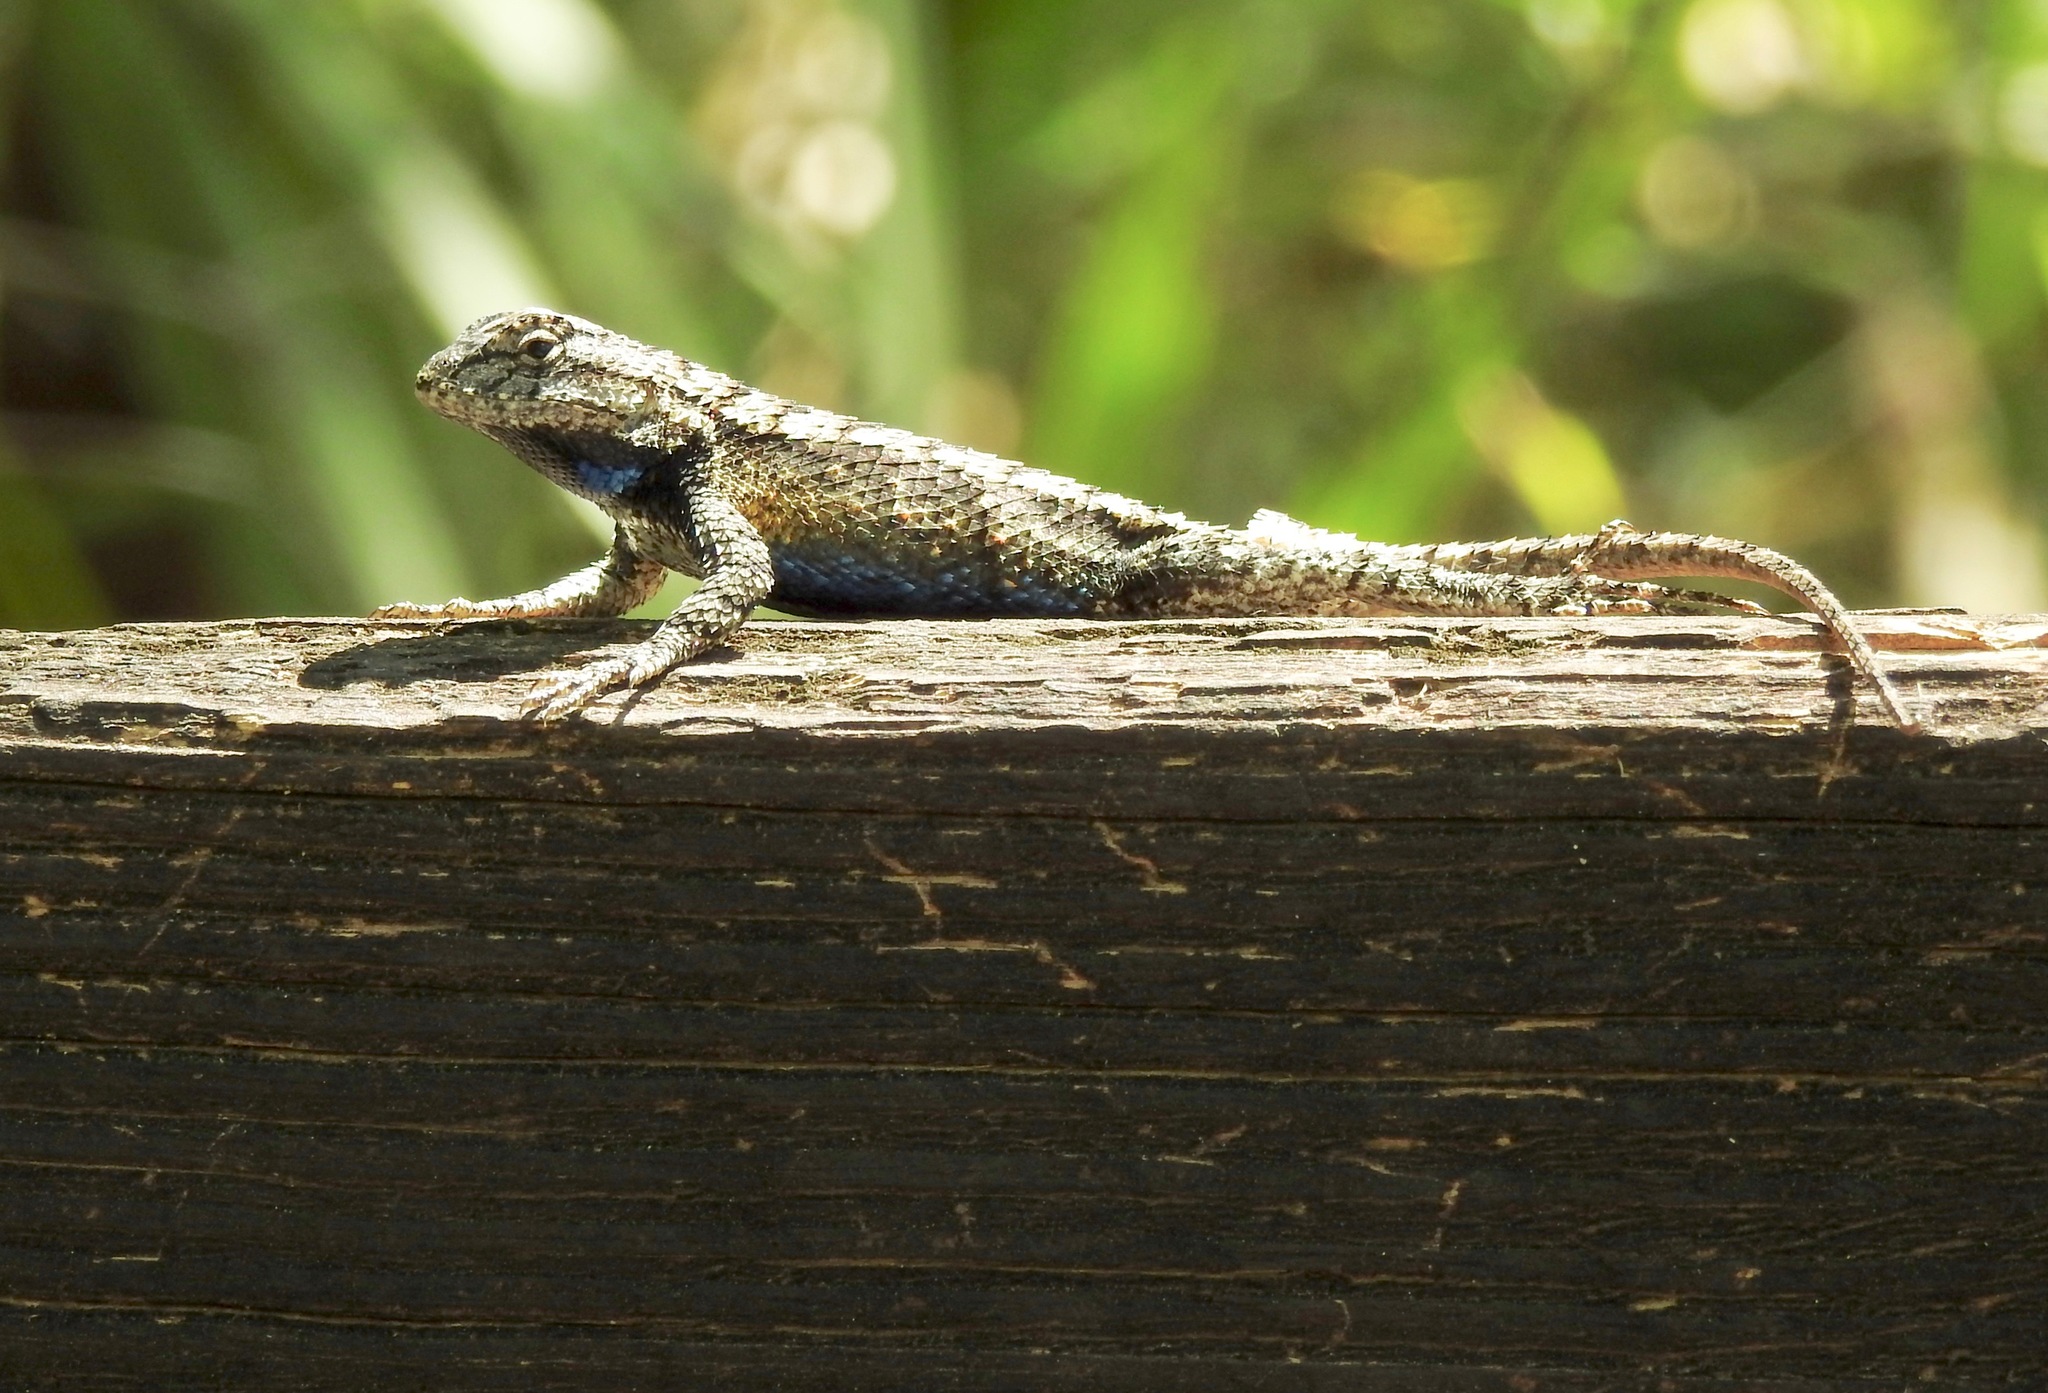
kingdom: Animalia
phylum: Chordata
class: Squamata
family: Phrynosomatidae
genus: Sceloporus
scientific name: Sceloporus undulatus
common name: Eastern fence lizard
